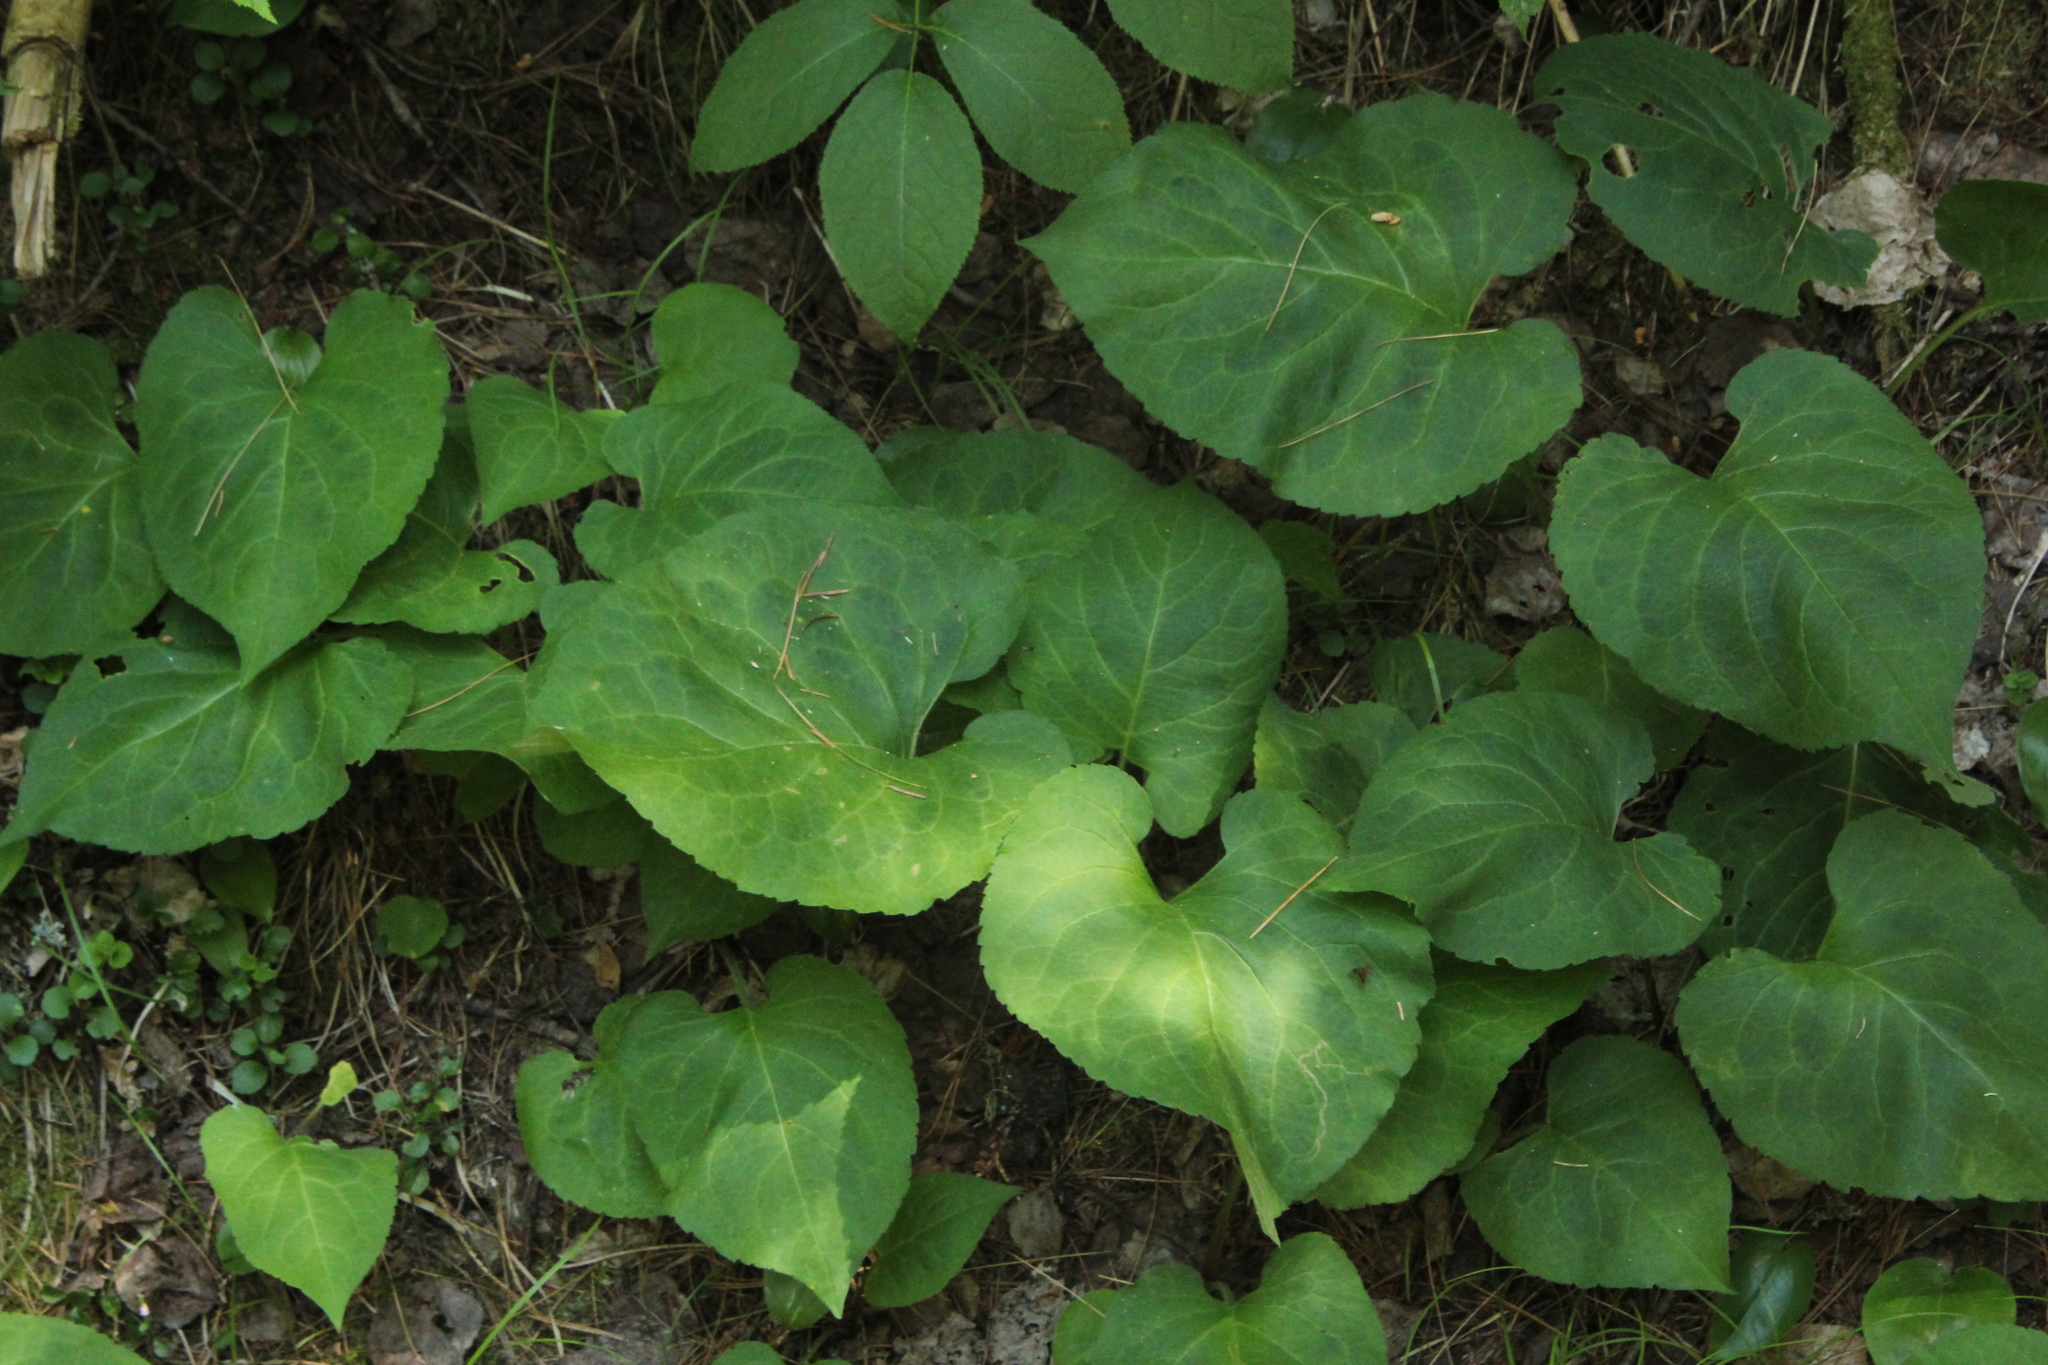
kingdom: Plantae
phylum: Tracheophyta
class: Magnoliopsida
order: Asterales
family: Asteraceae
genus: Eurybia
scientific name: Eurybia macrophylla
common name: Big-leaved aster
